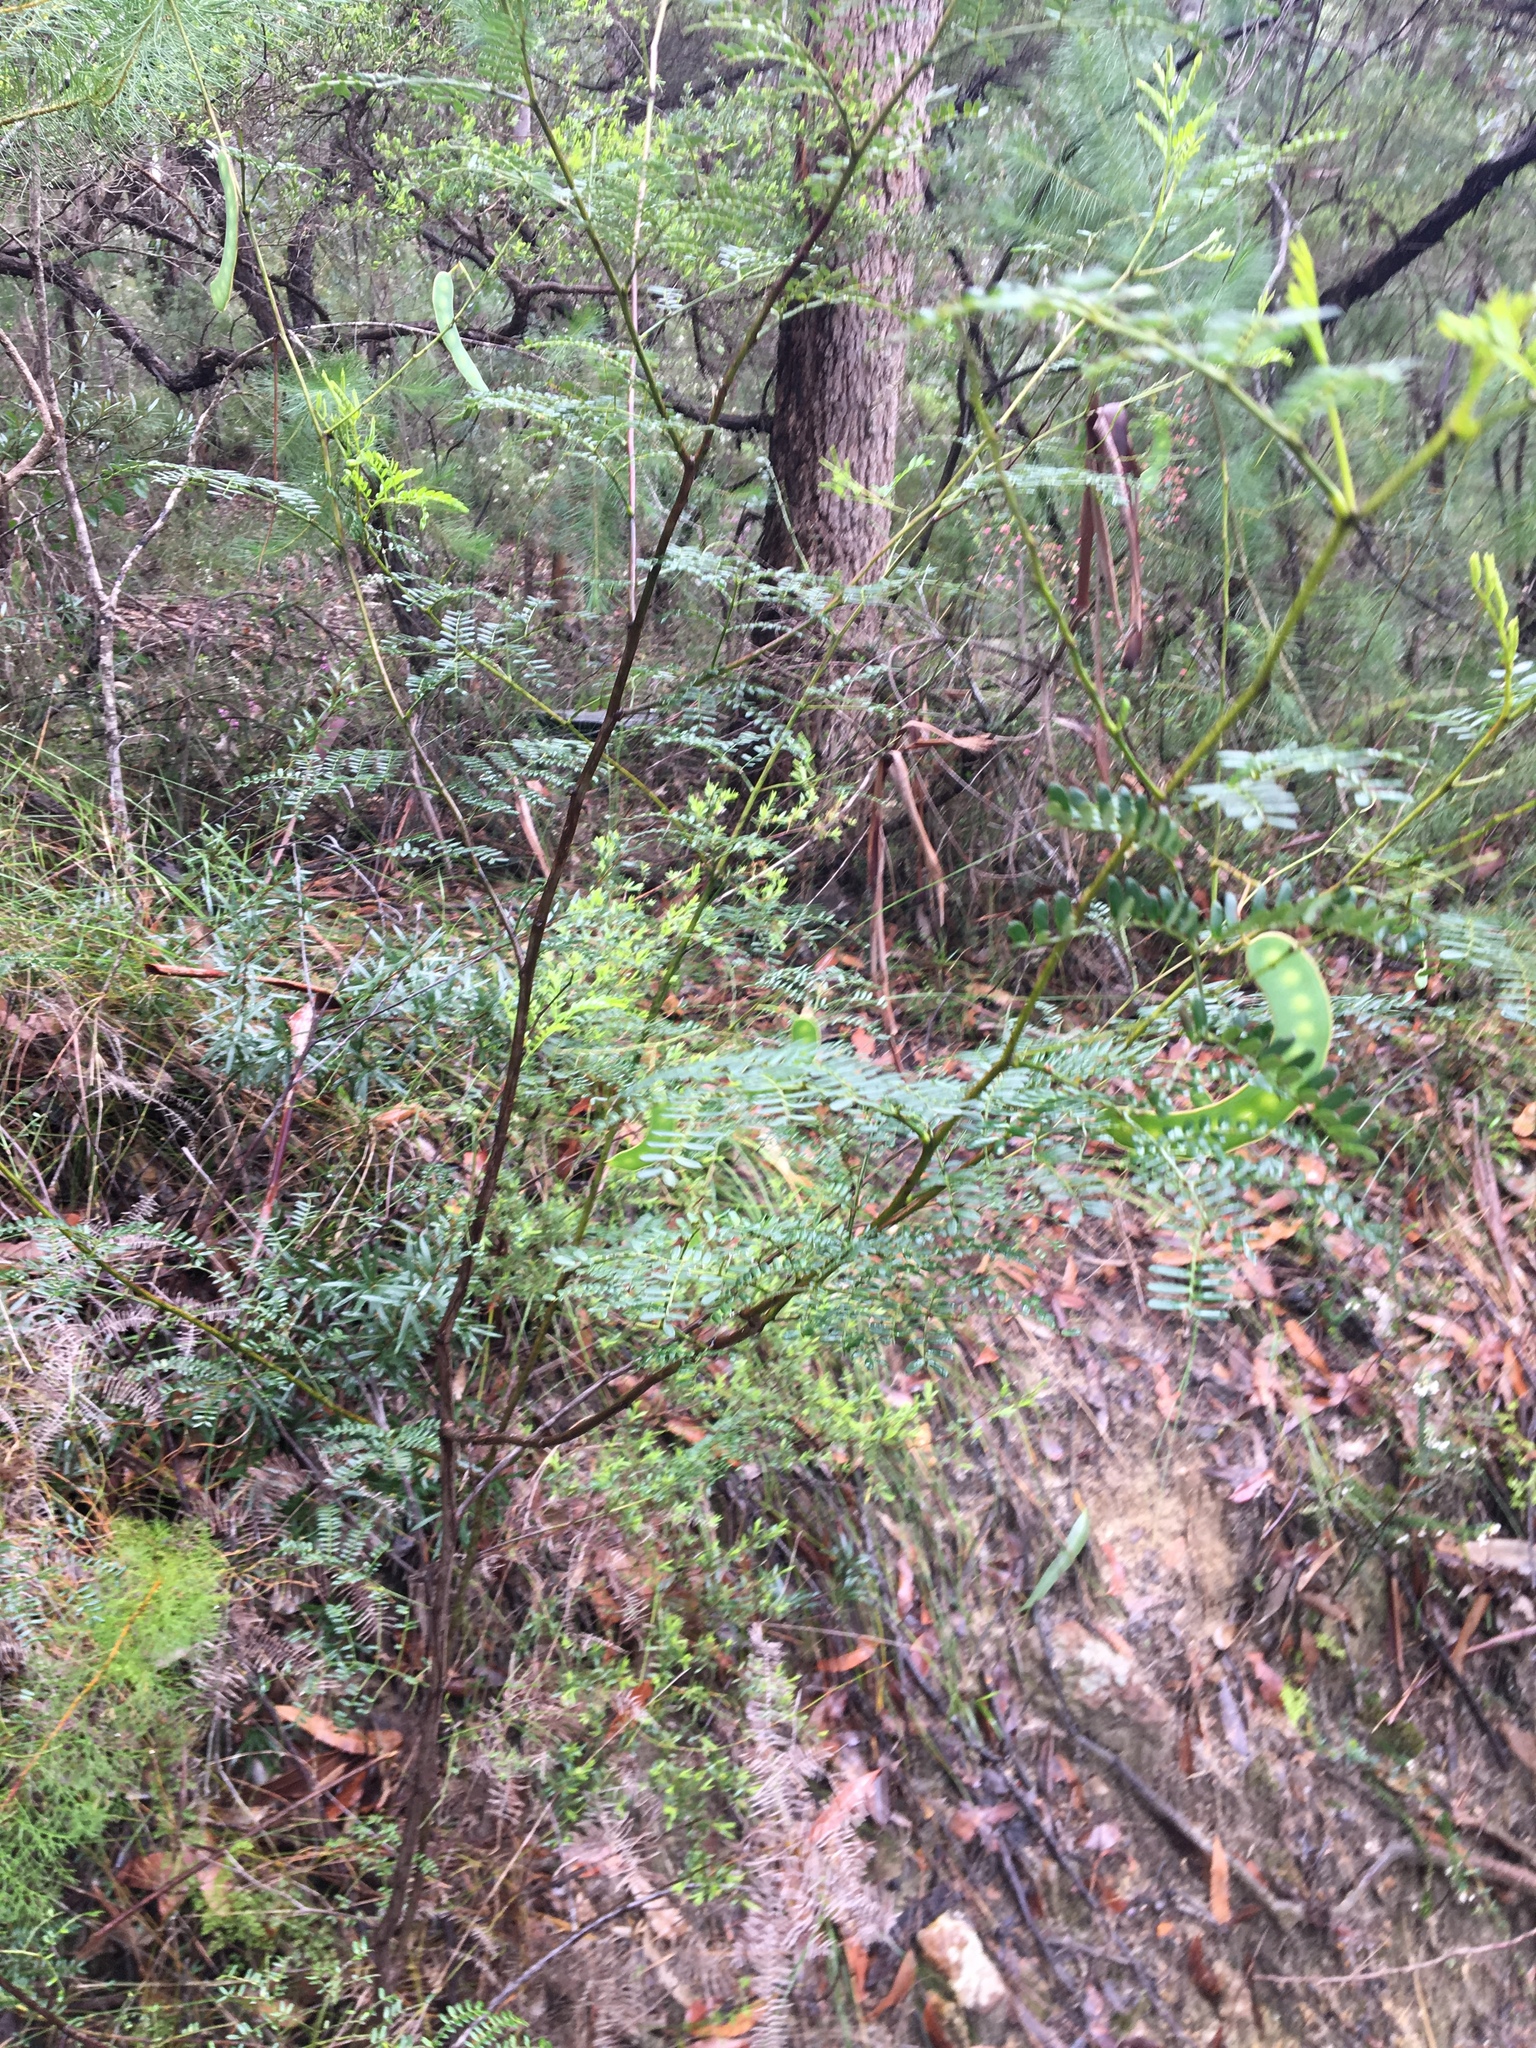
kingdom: Plantae
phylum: Tracheophyta
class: Magnoliopsida
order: Fabales
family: Fabaceae
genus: Acacia
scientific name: Acacia terminalis
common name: Cedar wattle
